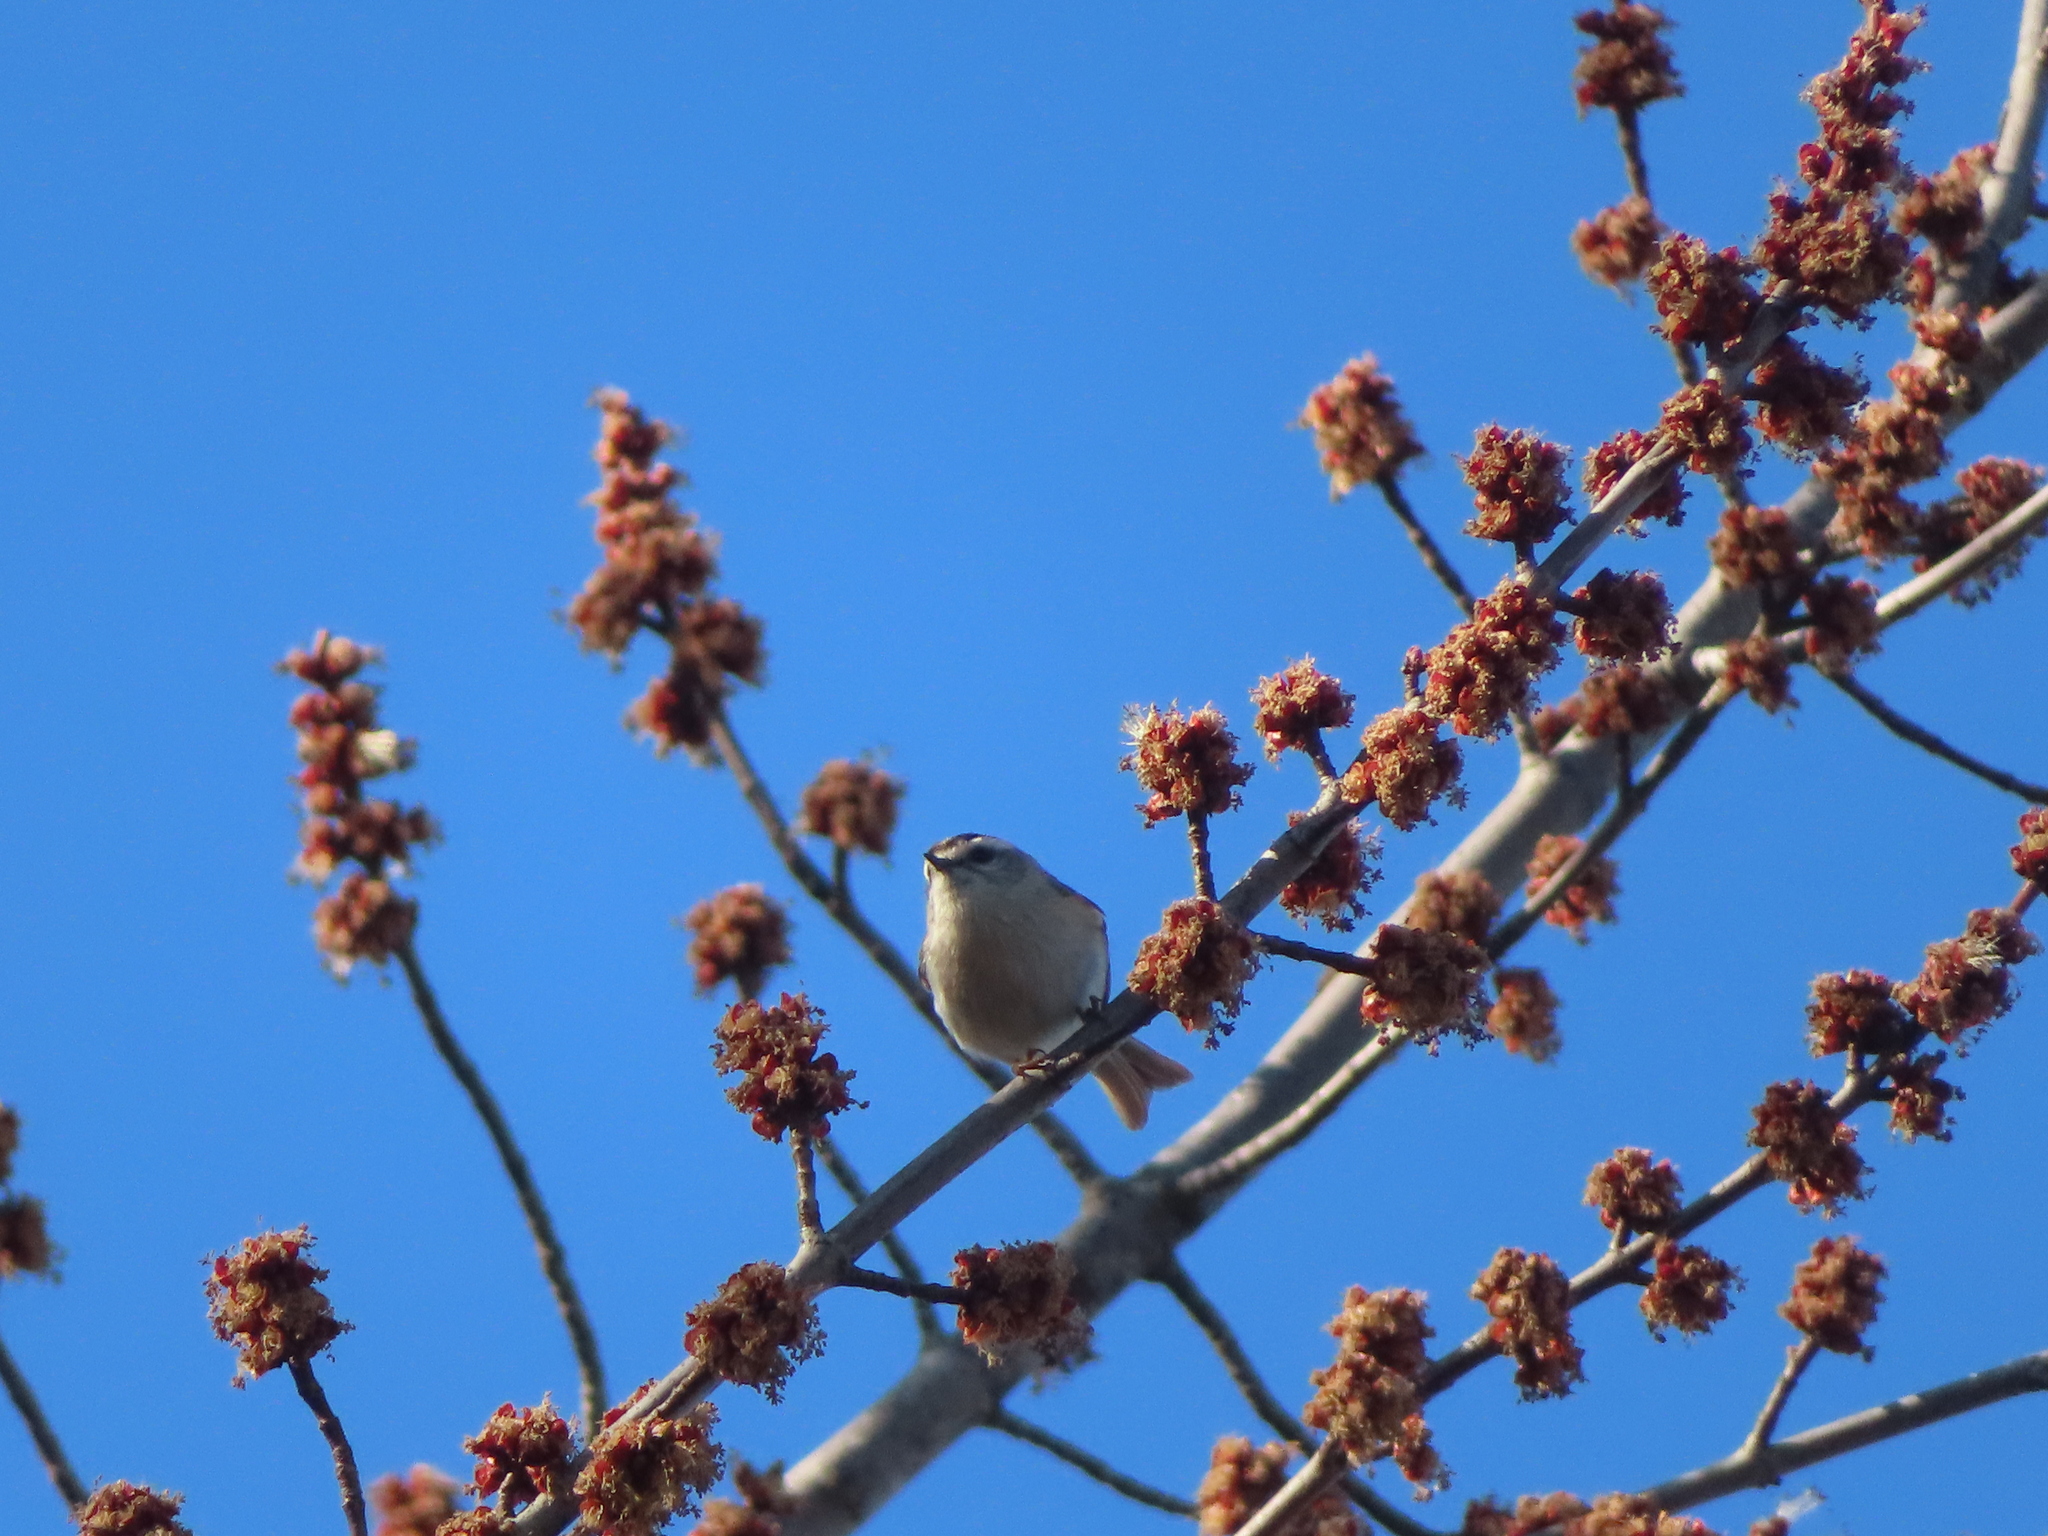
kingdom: Animalia
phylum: Chordata
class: Aves
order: Passeriformes
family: Regulidae
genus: Regulus
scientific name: Regulus satrapa
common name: Golden-crowned kinglet
